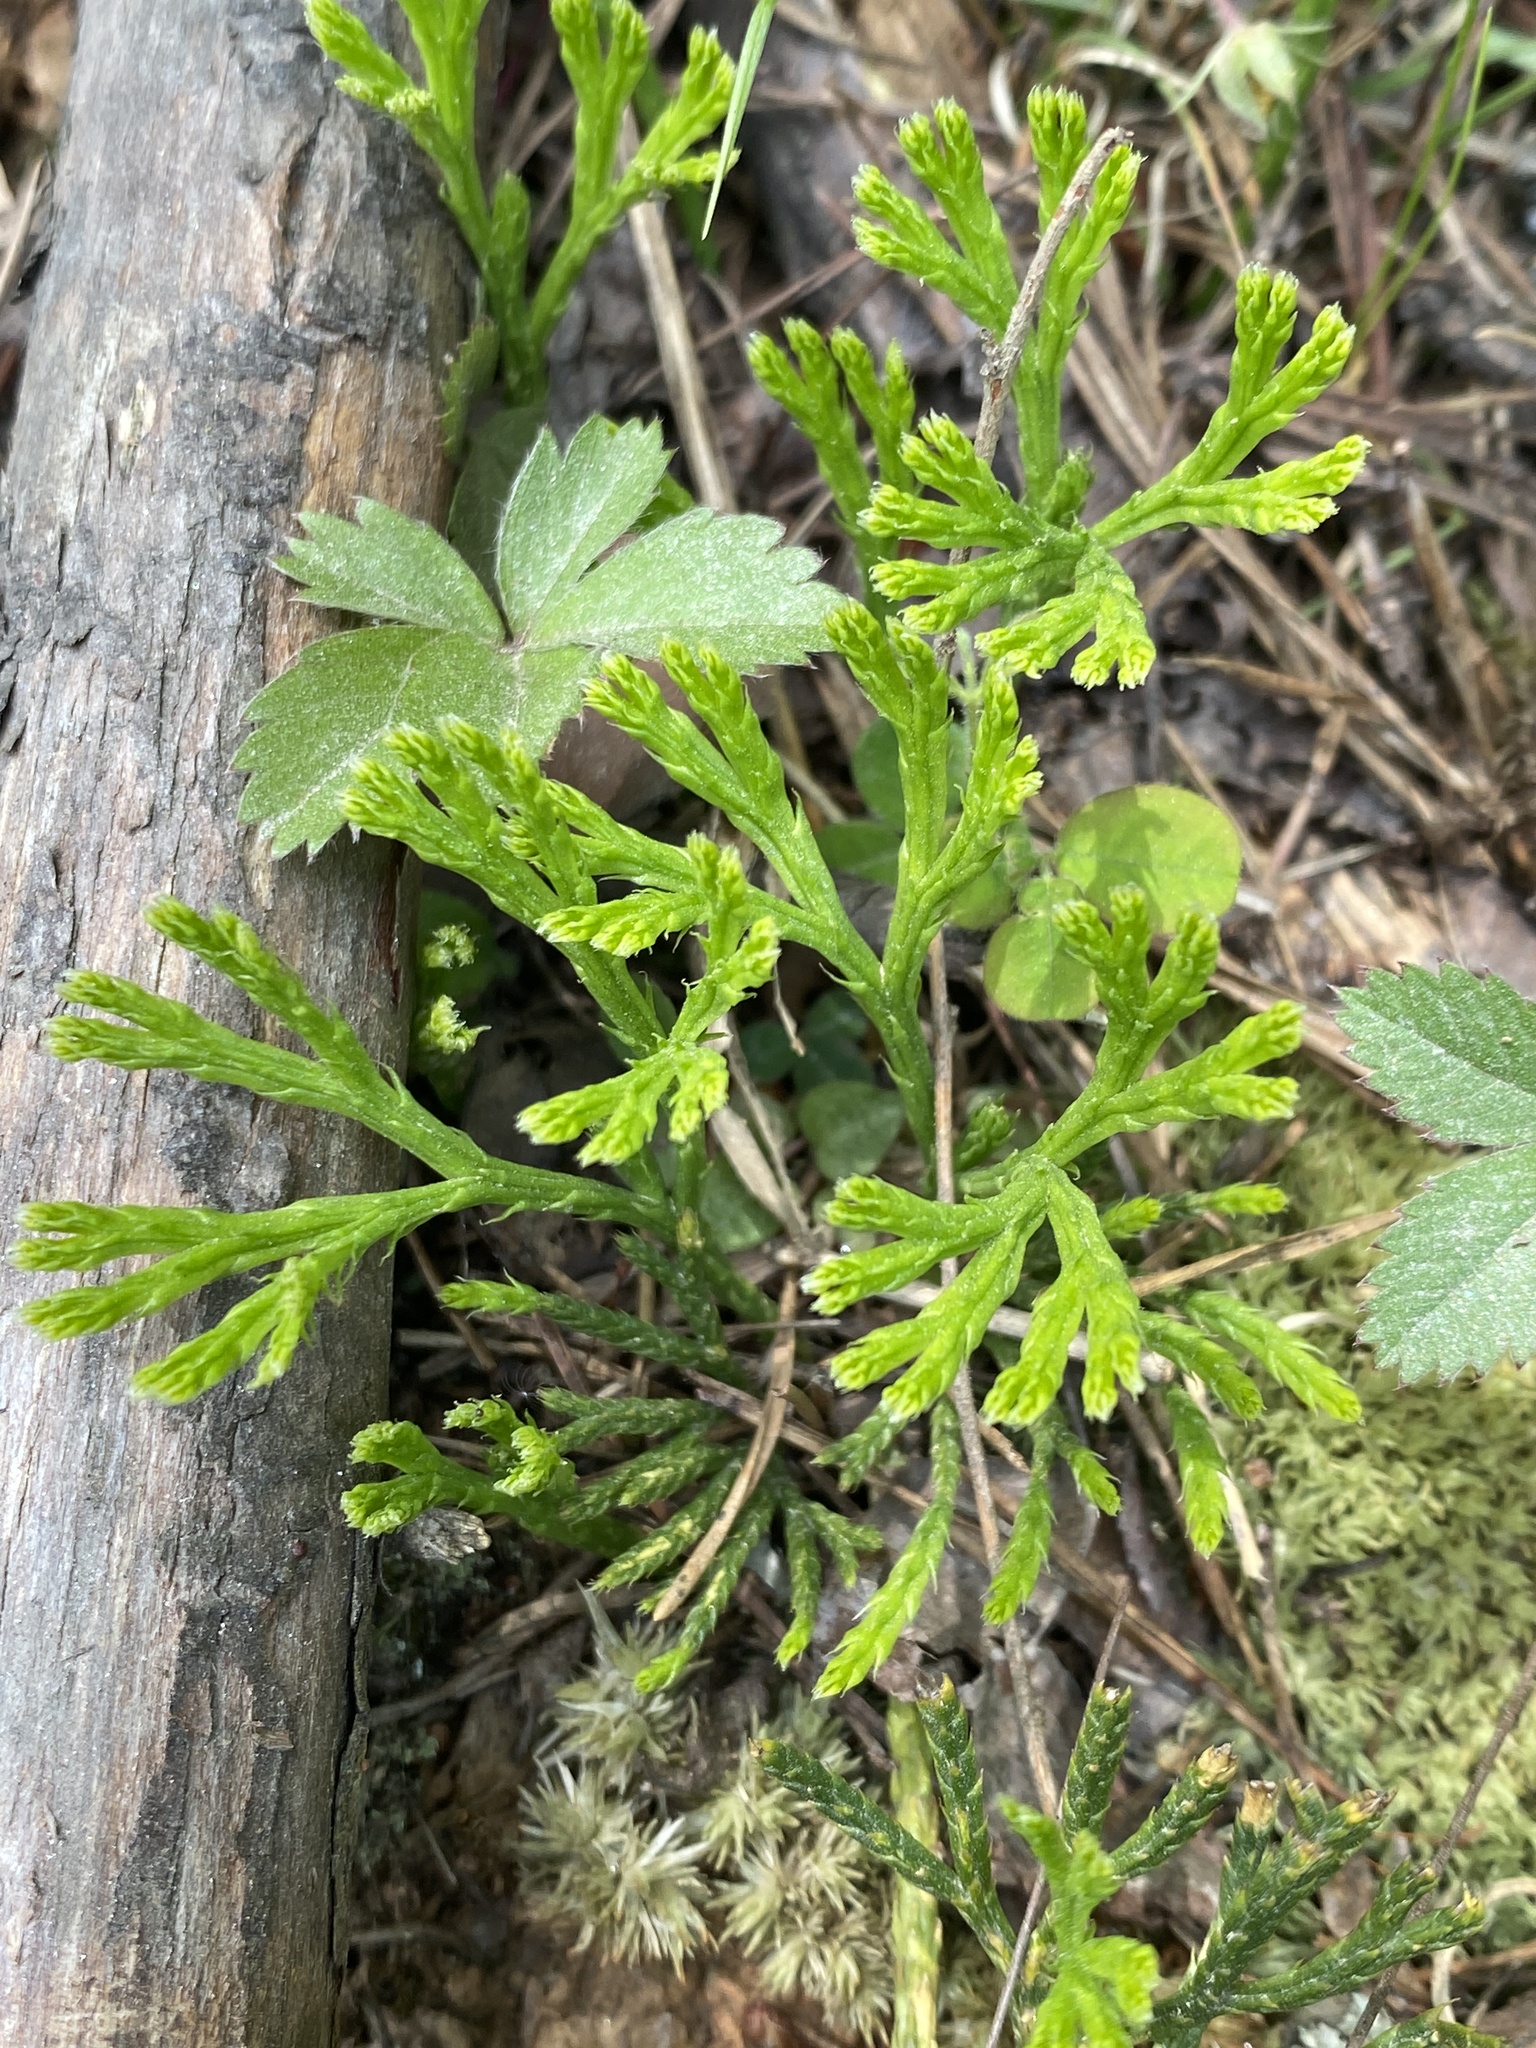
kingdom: Plantae
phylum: Tracheophyta
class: Lycopodiopsida
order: Lycopodiales
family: Lycopodiaceae
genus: Diphasiastrum
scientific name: Diphasiastrum digitatum
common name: Southern running-pine
